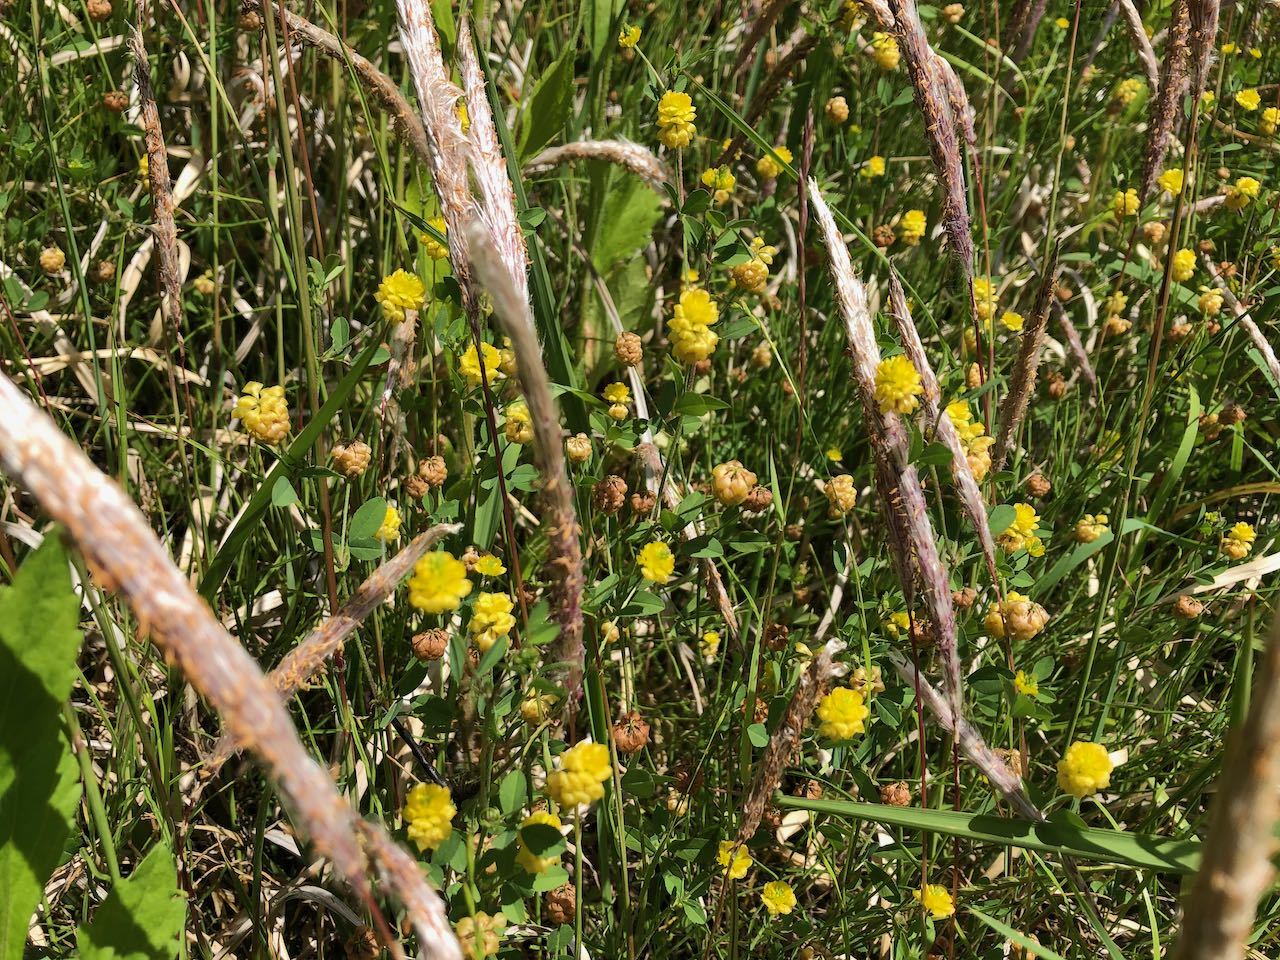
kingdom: Plantae
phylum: Tracheophyta
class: Magnoliopsida
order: Fabales
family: Fabaceae
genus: Trifolium
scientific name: Trifolium campestre
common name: Field clover
